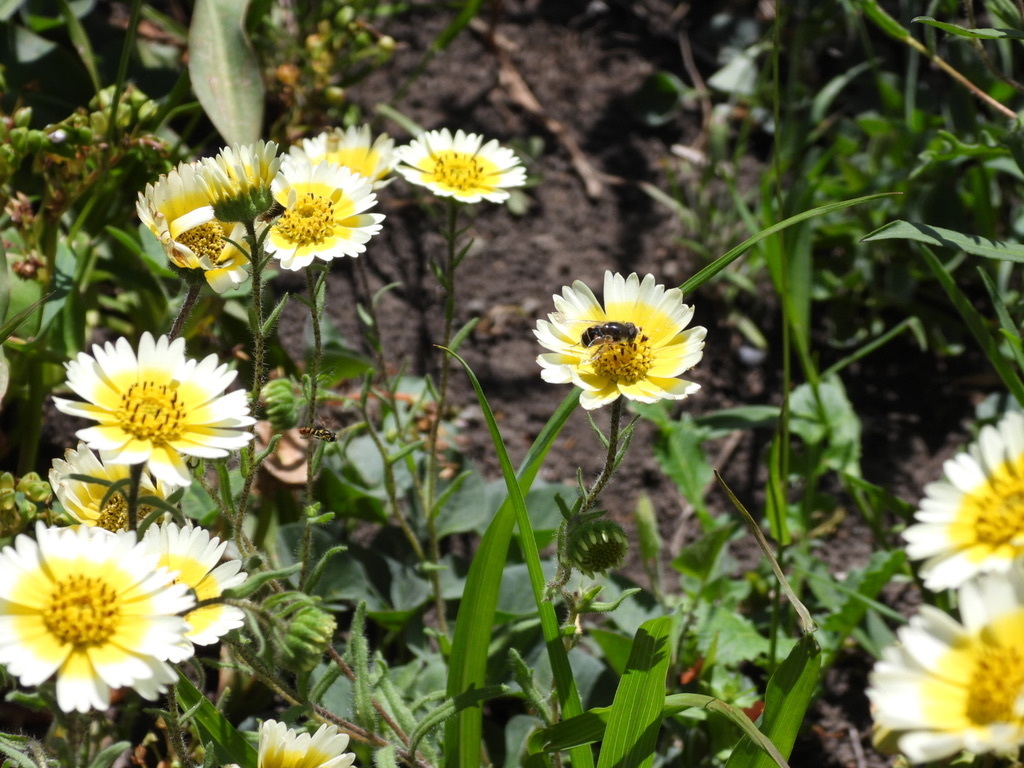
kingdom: Plantae
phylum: Tracheophyta
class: Magnoliopsida
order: Asterales
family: Asteraceae
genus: Layia
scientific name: Layia gaillardioides
